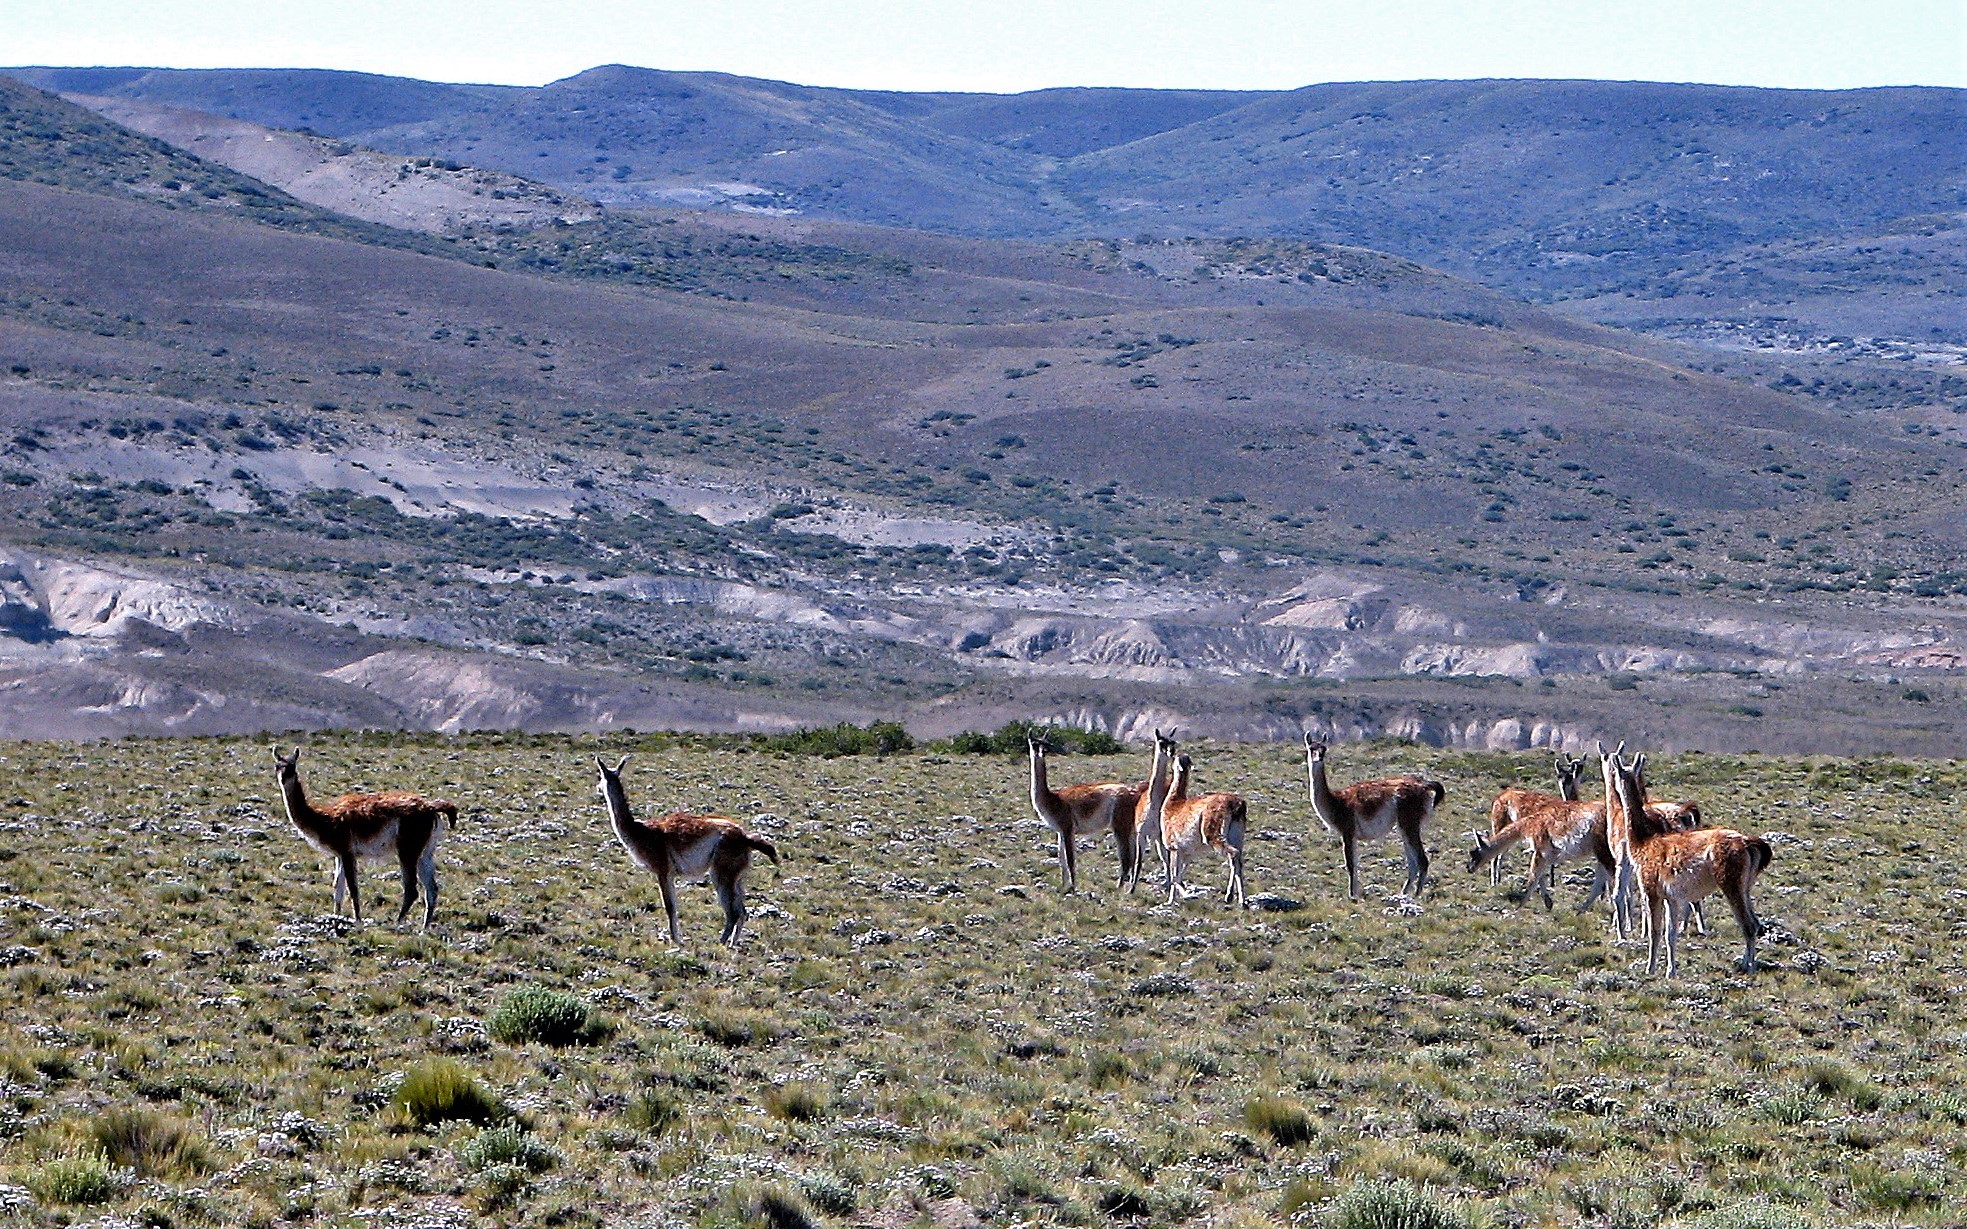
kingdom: Animalia
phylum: Chordata
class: Mammalia
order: Artiodactyla
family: Camelidae
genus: Lama
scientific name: Lama glama
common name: Llama
